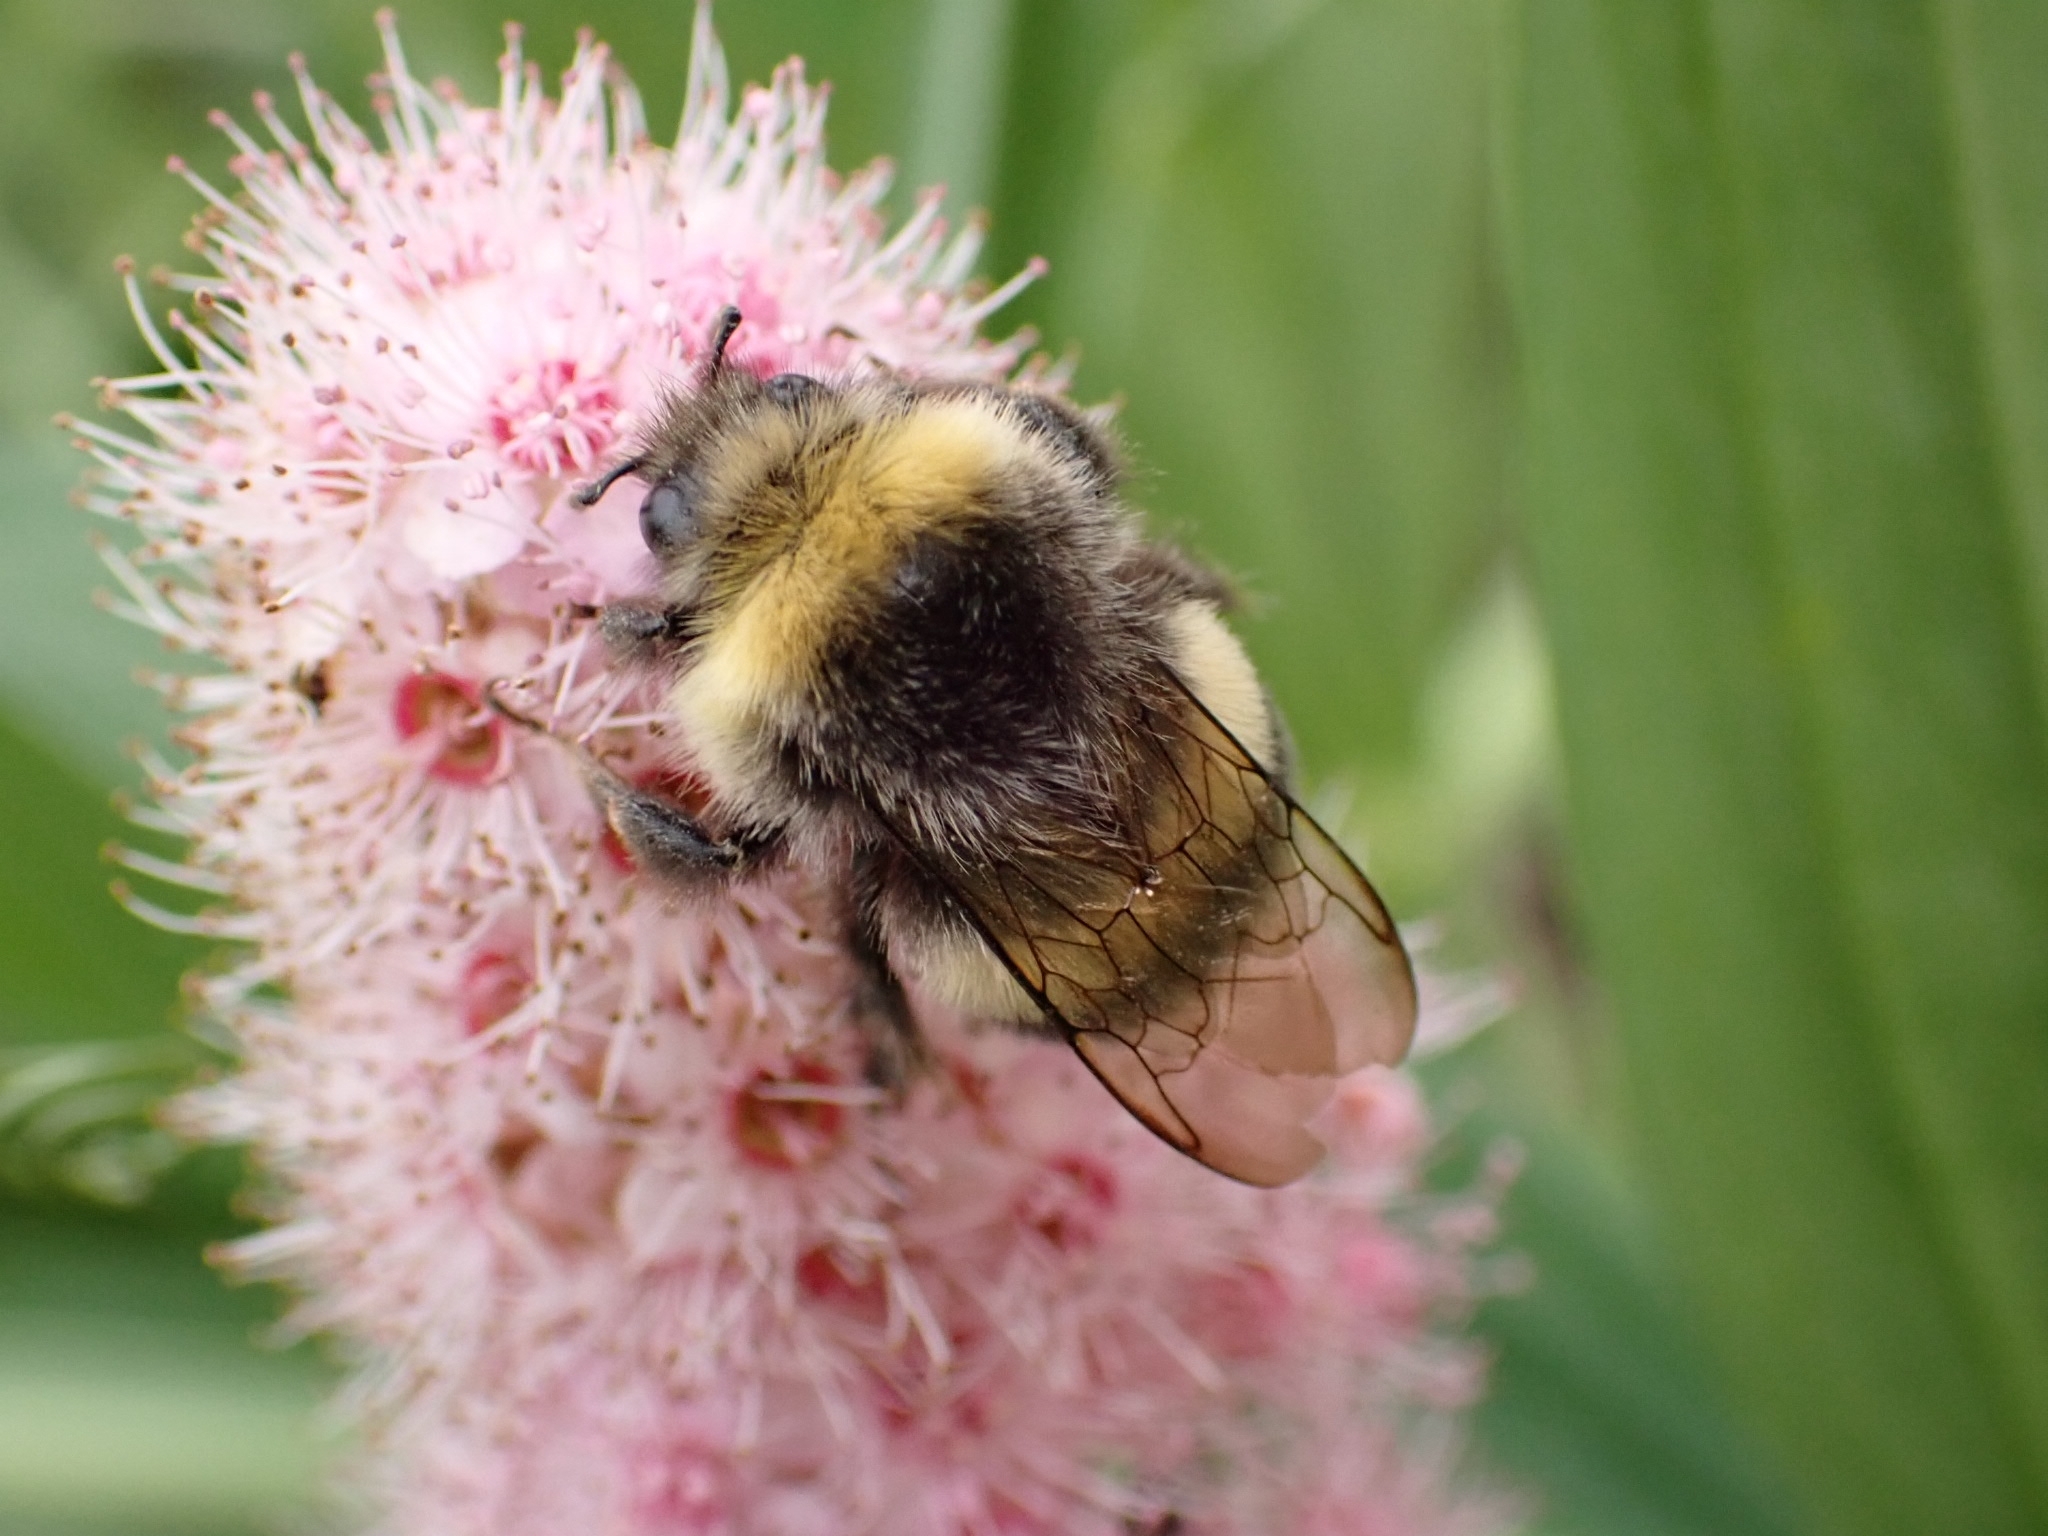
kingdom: Animalia
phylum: Arthropoda
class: Insecta
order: Hymenoptera
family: Apidae
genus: Bombus
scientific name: Bombus lucorum
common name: White-tailed bumblebee
